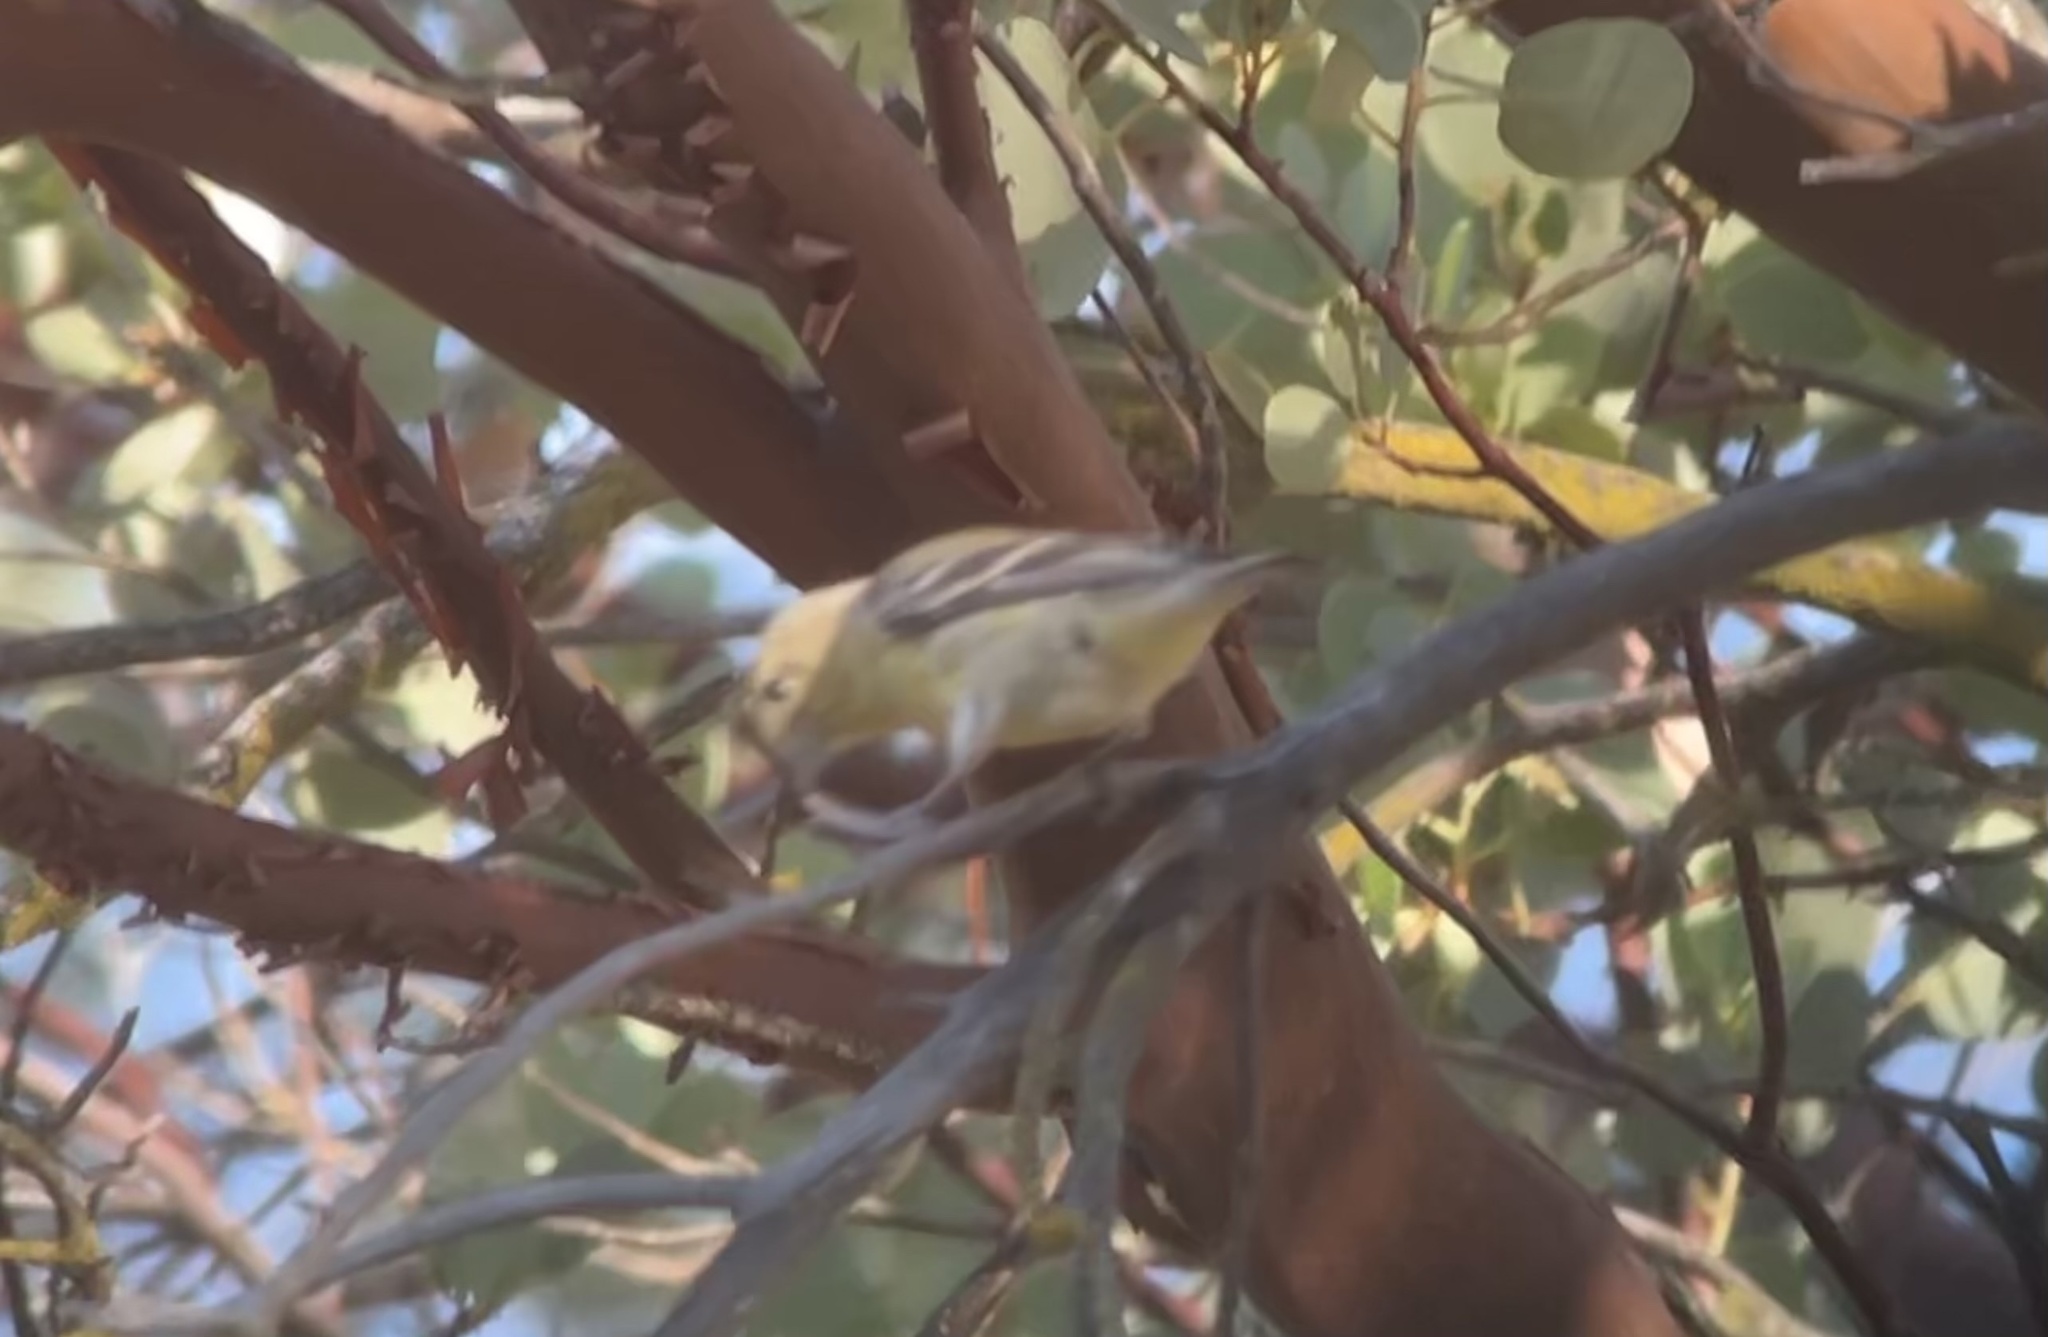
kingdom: Animalia
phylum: Chordata
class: Aves
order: Passeriformes
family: Fringillidae
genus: Spinus
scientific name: Spinus psaltria
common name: Lesser goldfinch
